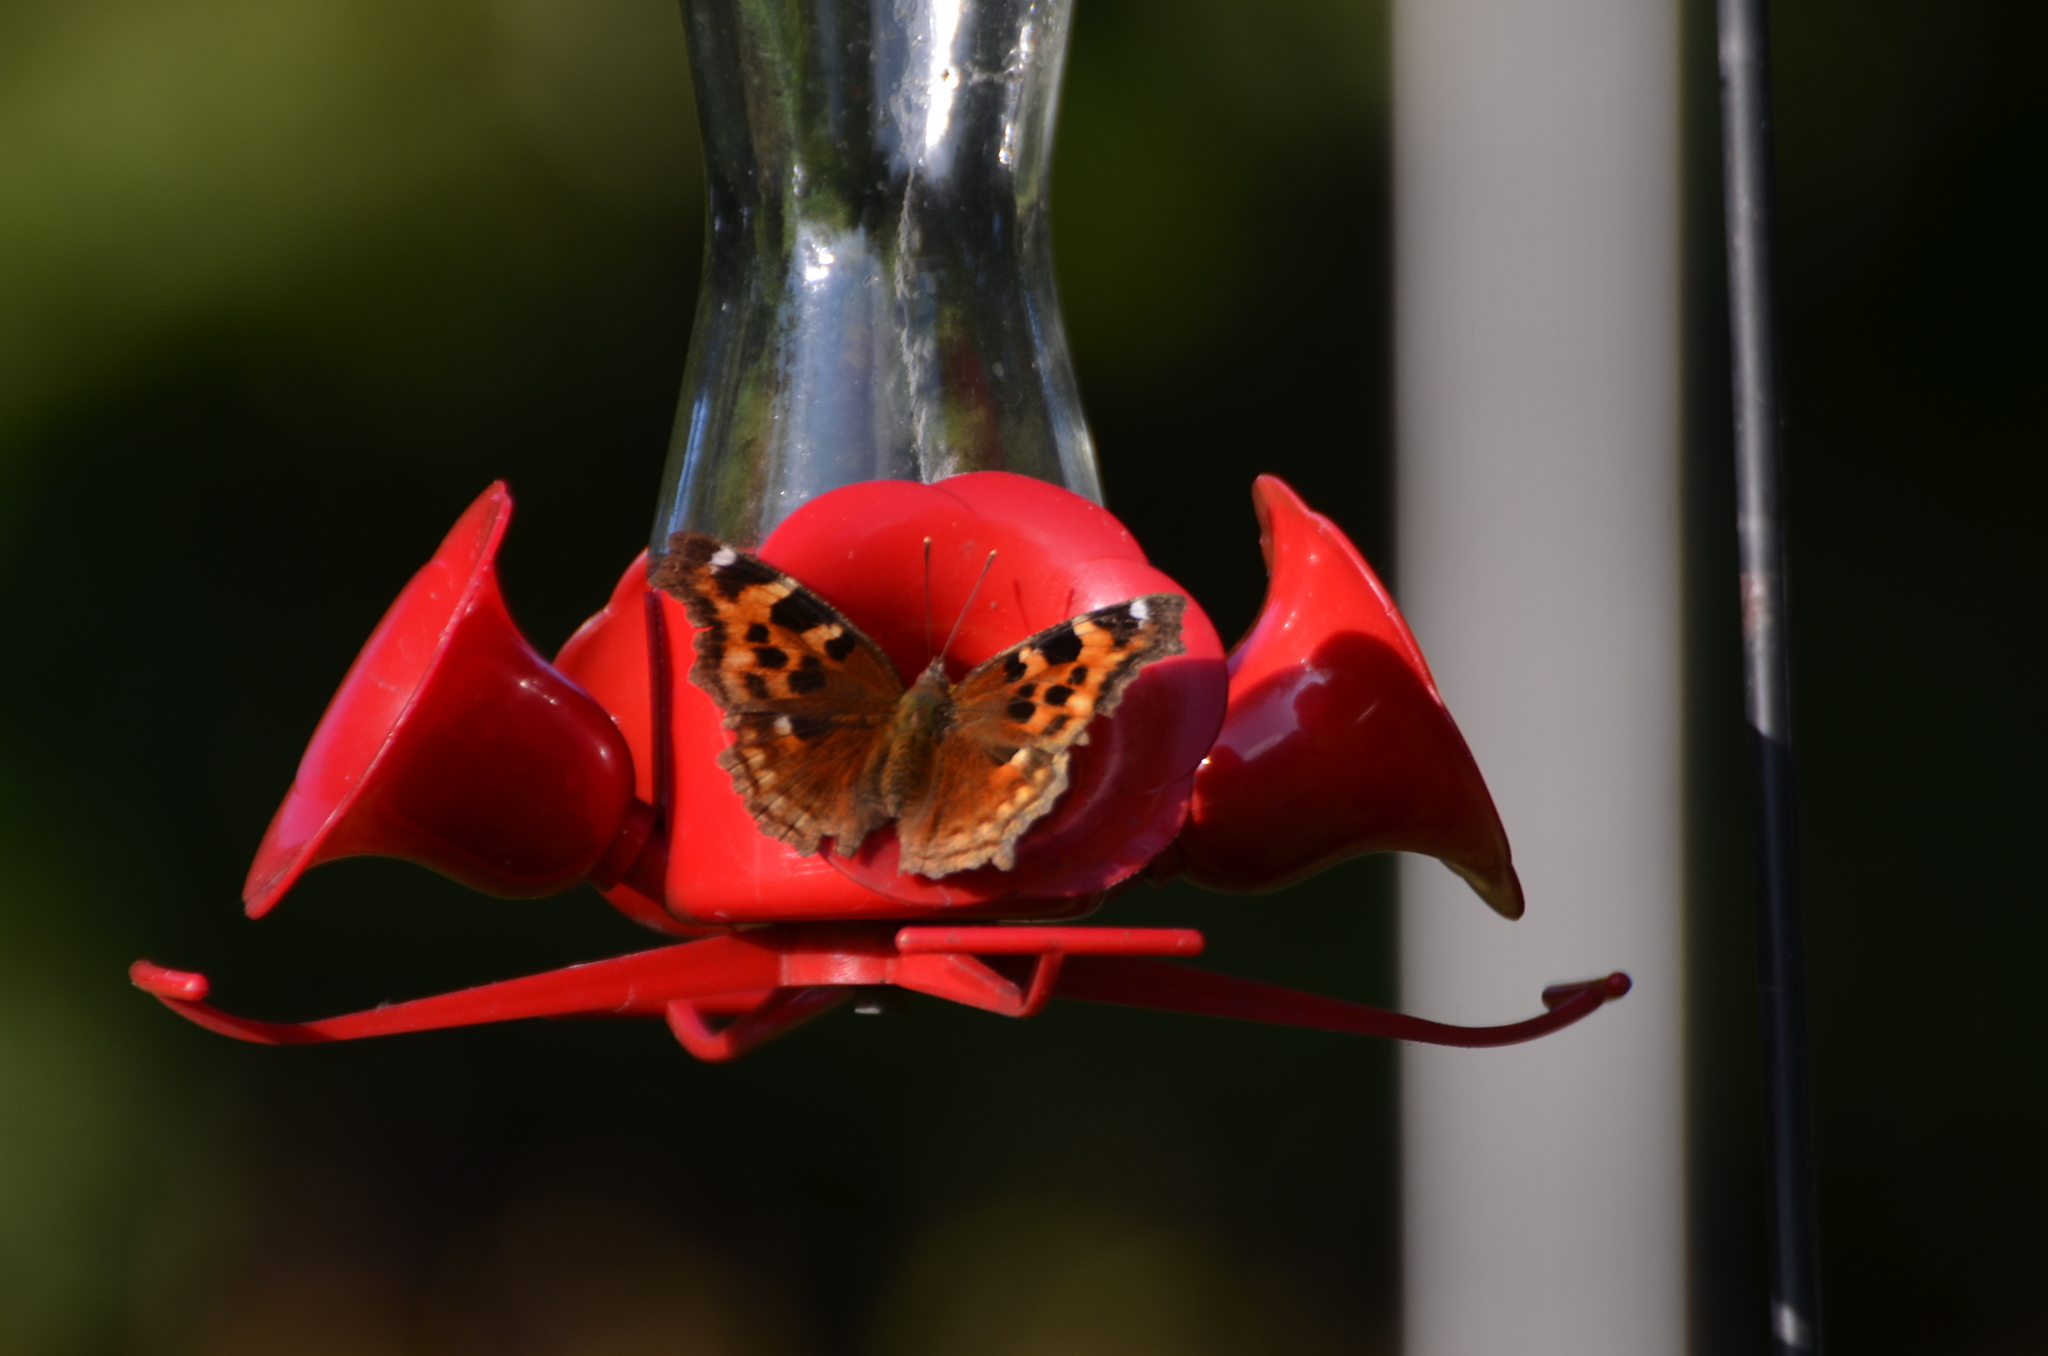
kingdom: Animalia
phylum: Arthropoda
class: Insecta
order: Lepidoptera
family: Nymphalidae
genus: Polygonia
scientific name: Polygonia vaualbum
